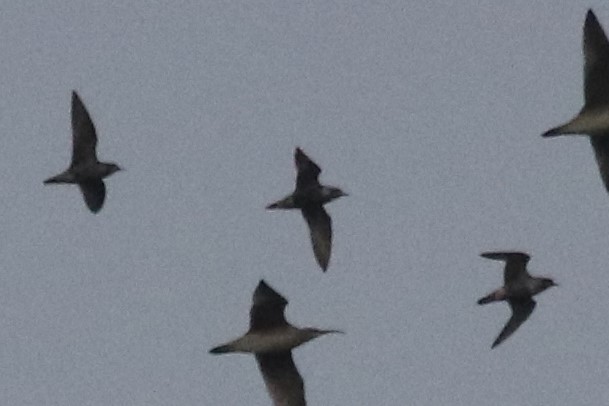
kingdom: Animalia
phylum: Chordata
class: Aves
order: Charadriiformes
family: Charadriidae
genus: Pluvialis
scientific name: Pluvialis dominica
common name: American golden plover
